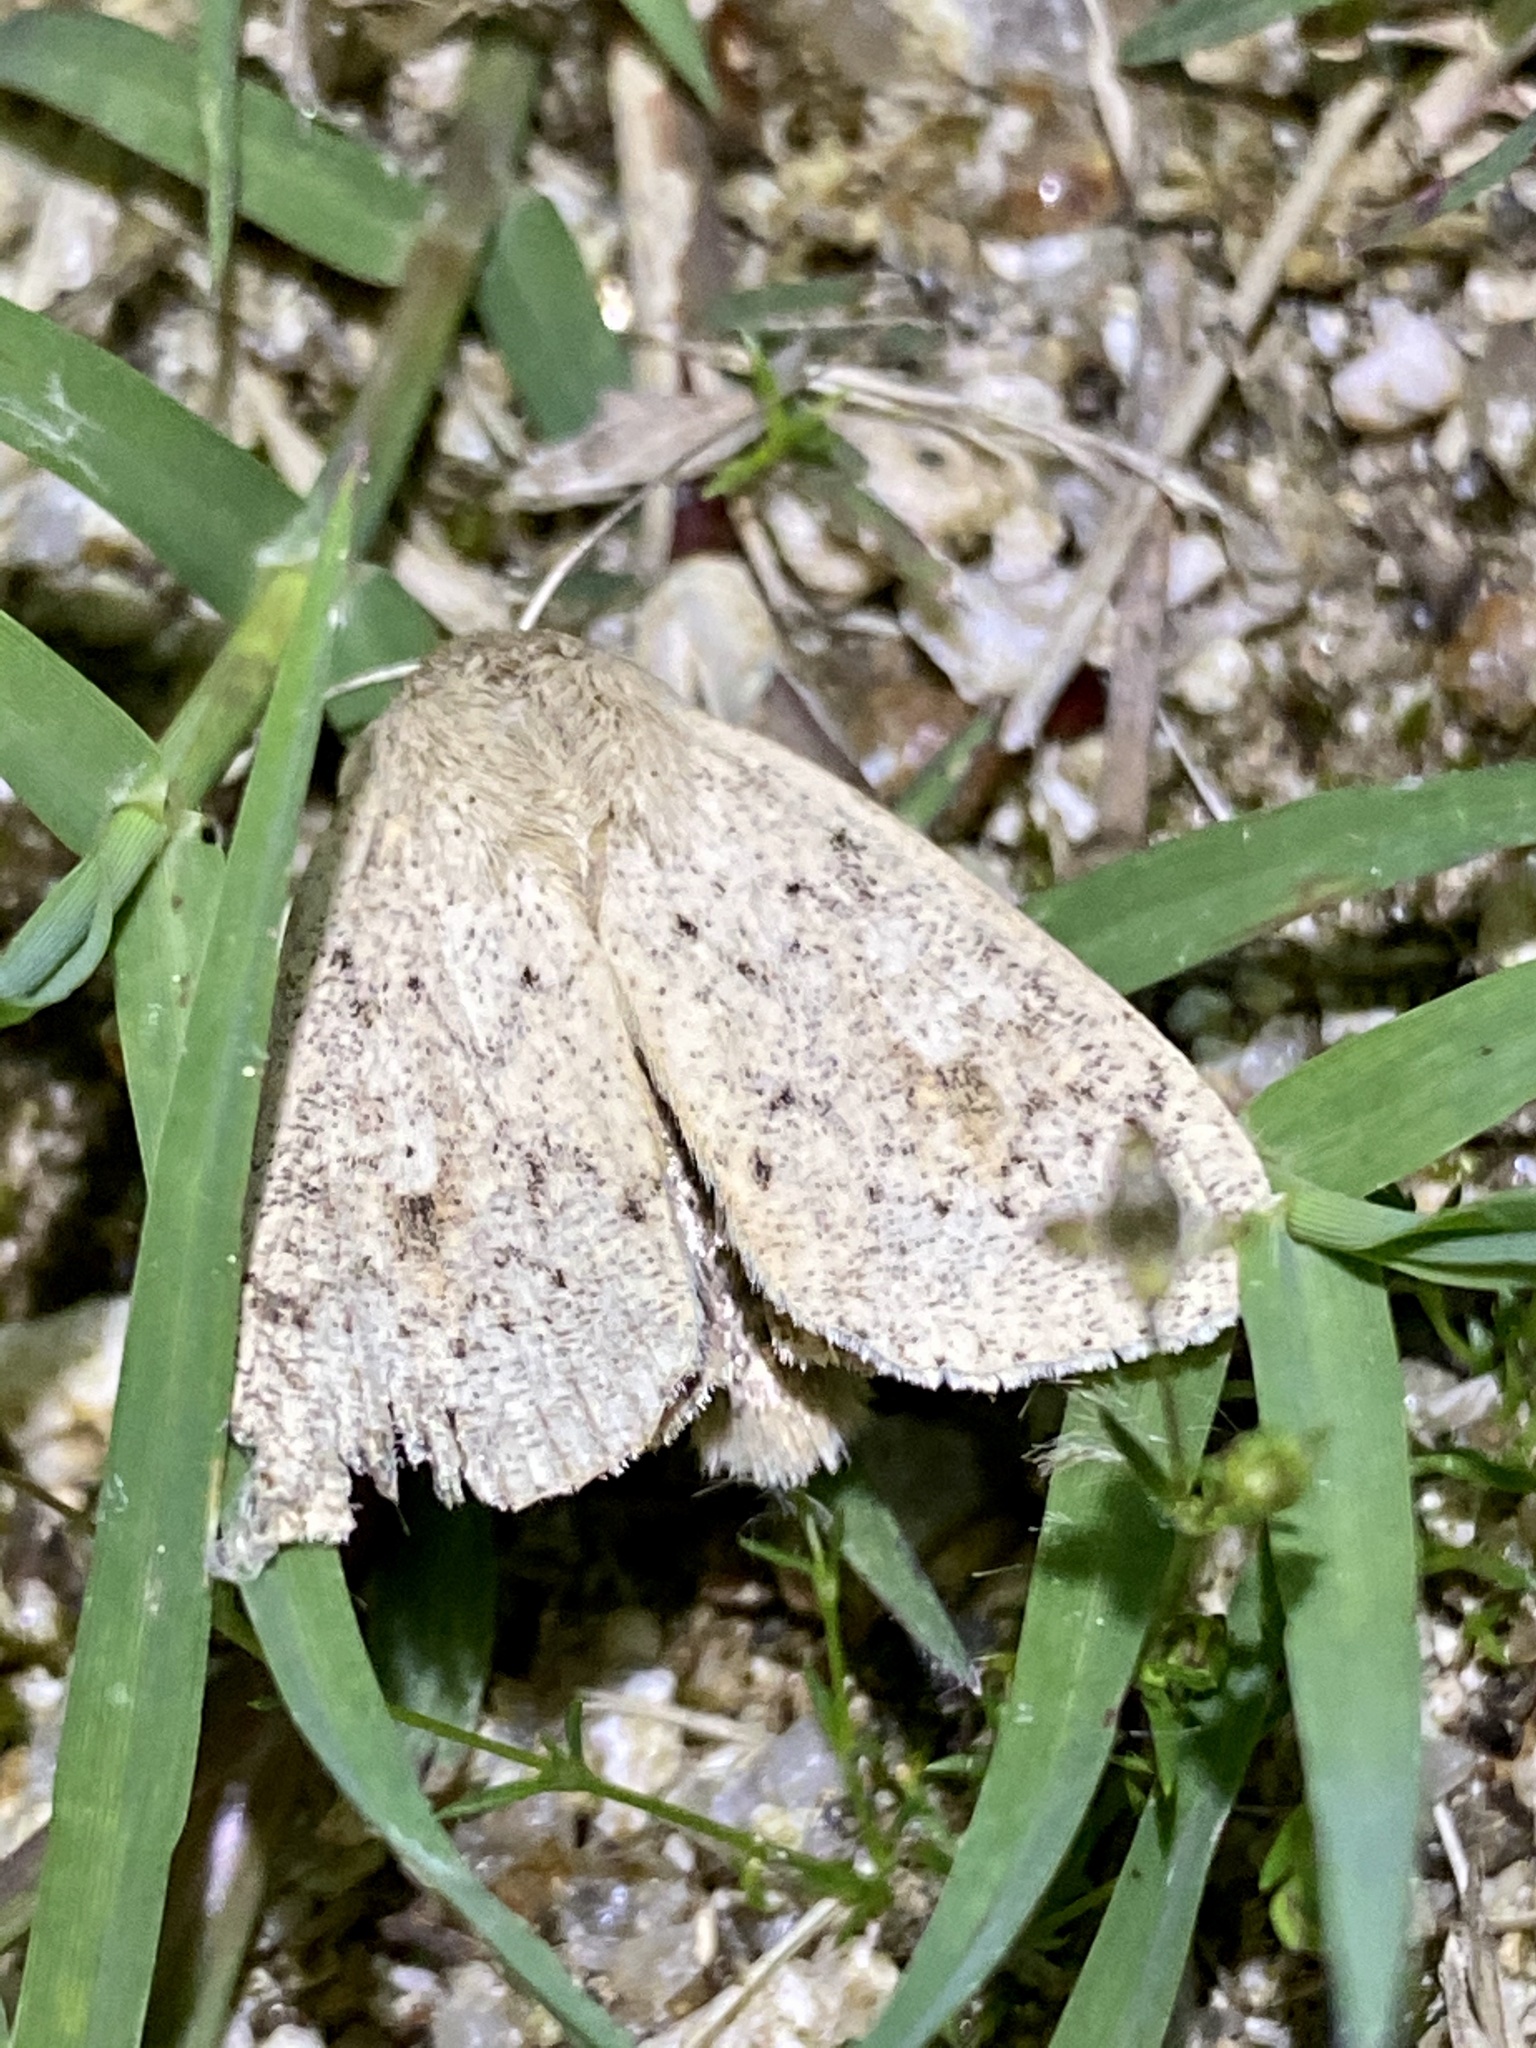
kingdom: Animalia
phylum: Arthropoda
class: Insecta
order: Lepidoptera
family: Noctuidae
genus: Mythimna
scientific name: Mythimna placida
